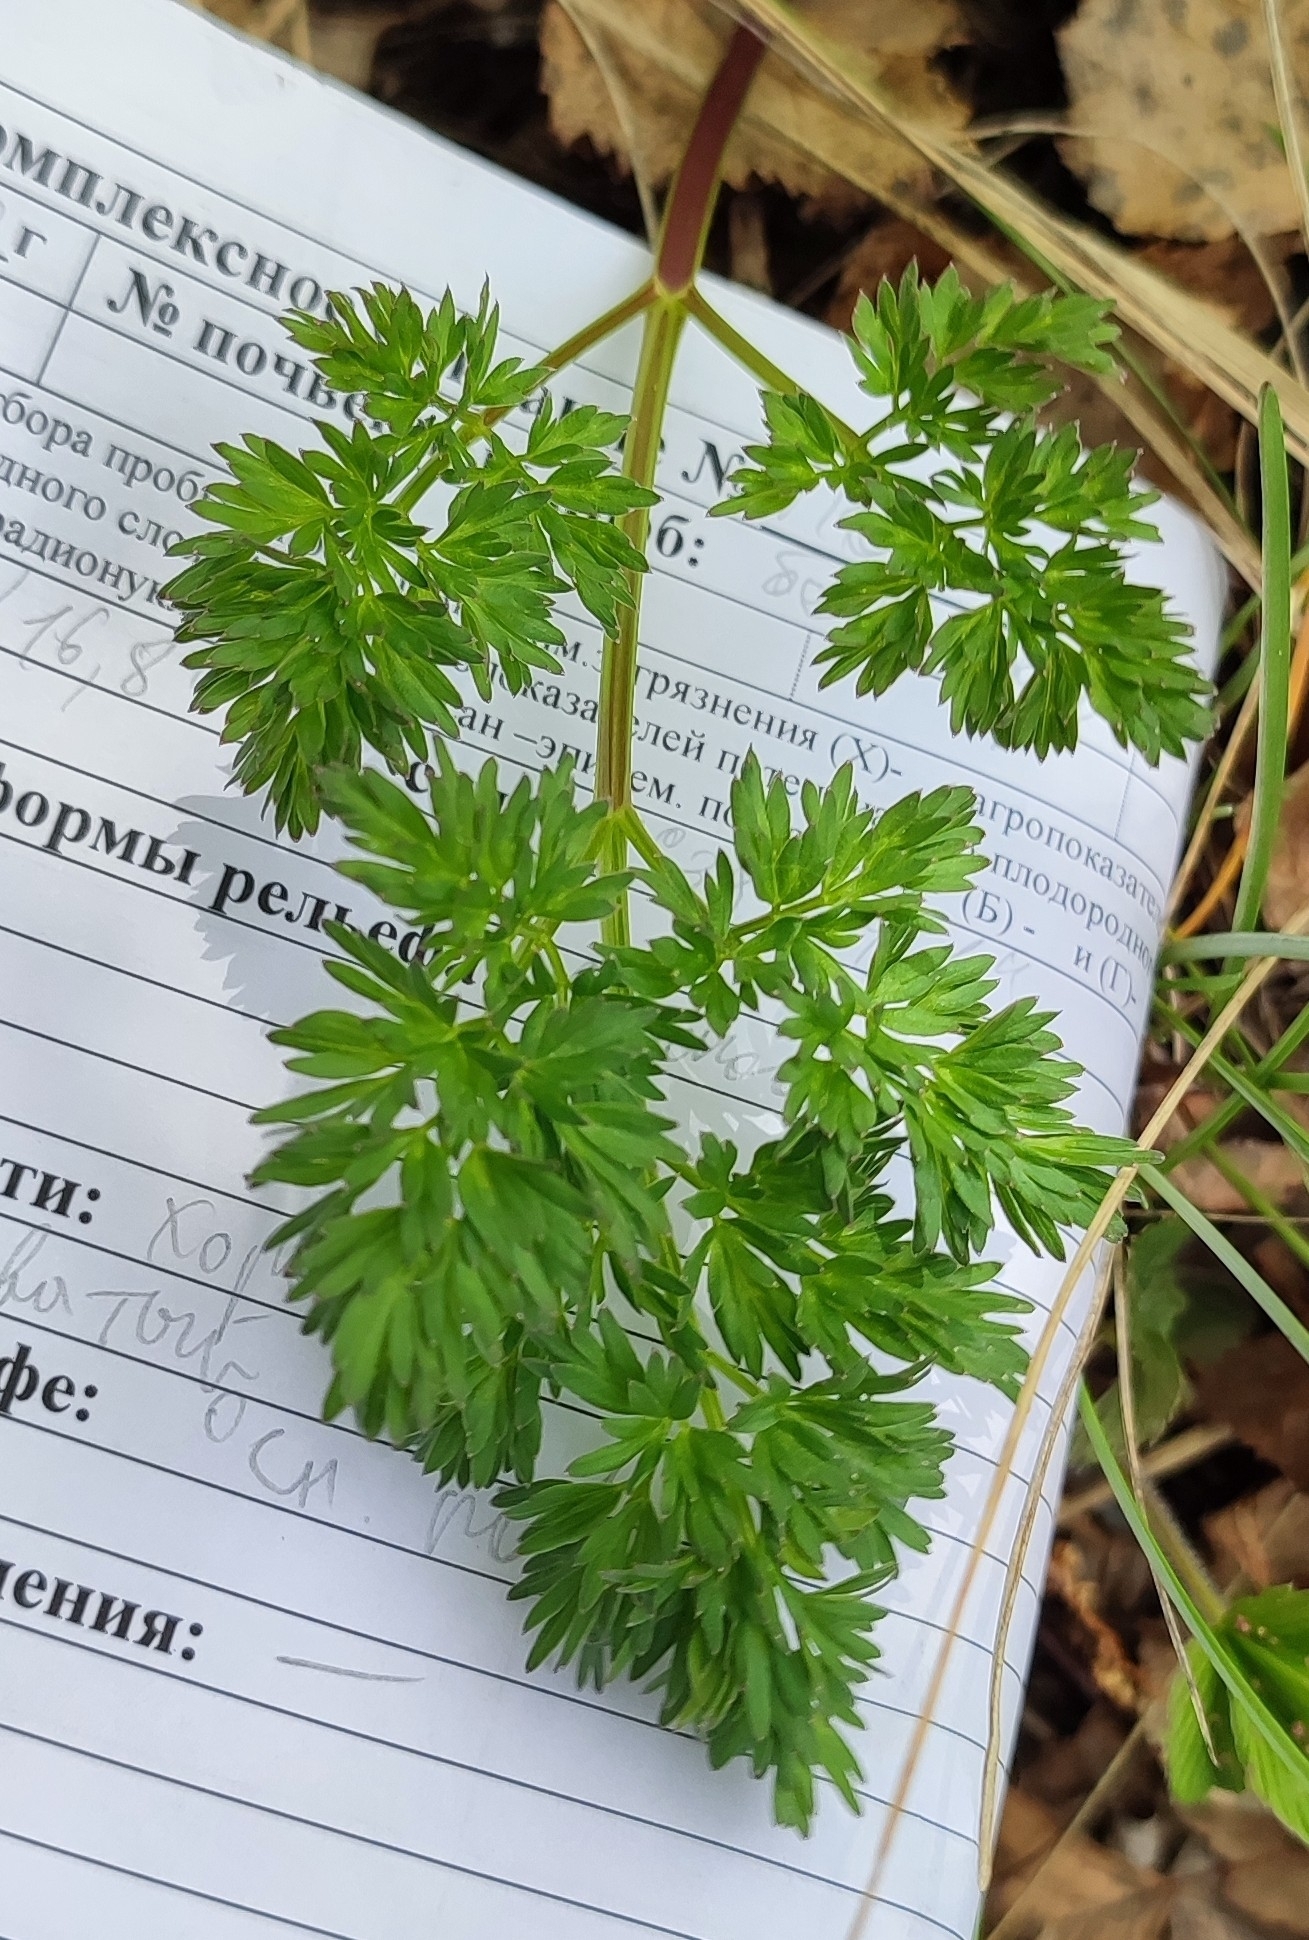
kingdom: Plantae
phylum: Tracheophyta
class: Magnoliopsida
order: Apiales
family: Apiaceae
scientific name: Apiaceae
